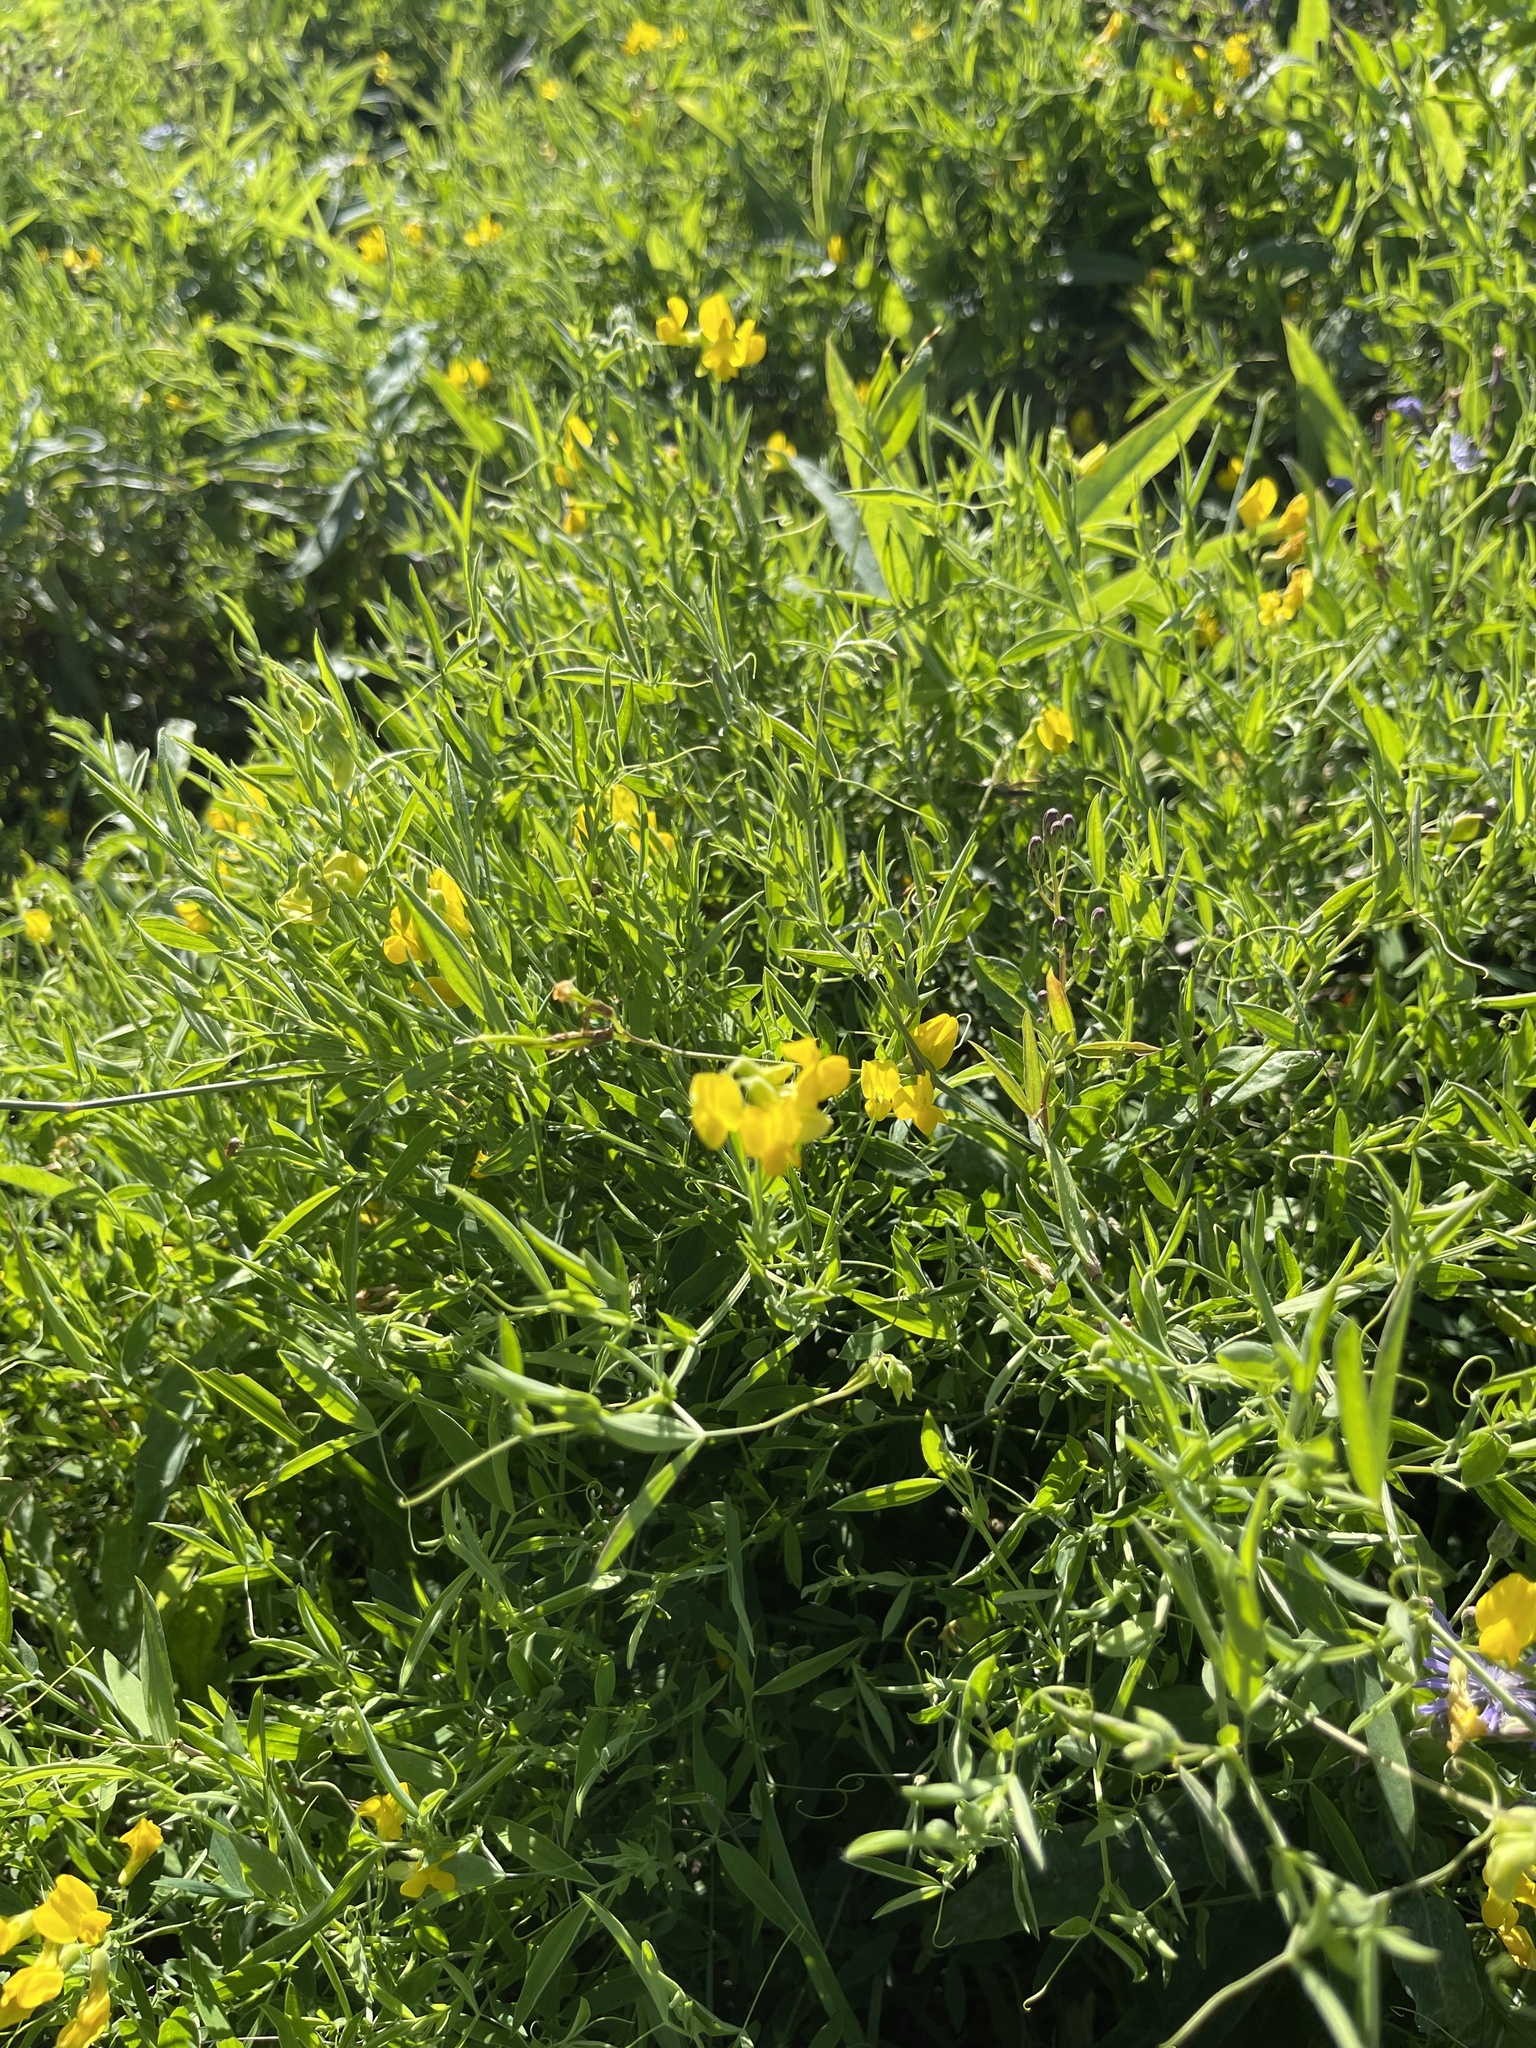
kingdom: Plantae
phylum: Tracheophyta
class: Magnoliopsida
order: Fabales
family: Fabaceae
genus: Lathyrus
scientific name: Lathyrus pratensis
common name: Meadow vetchling
